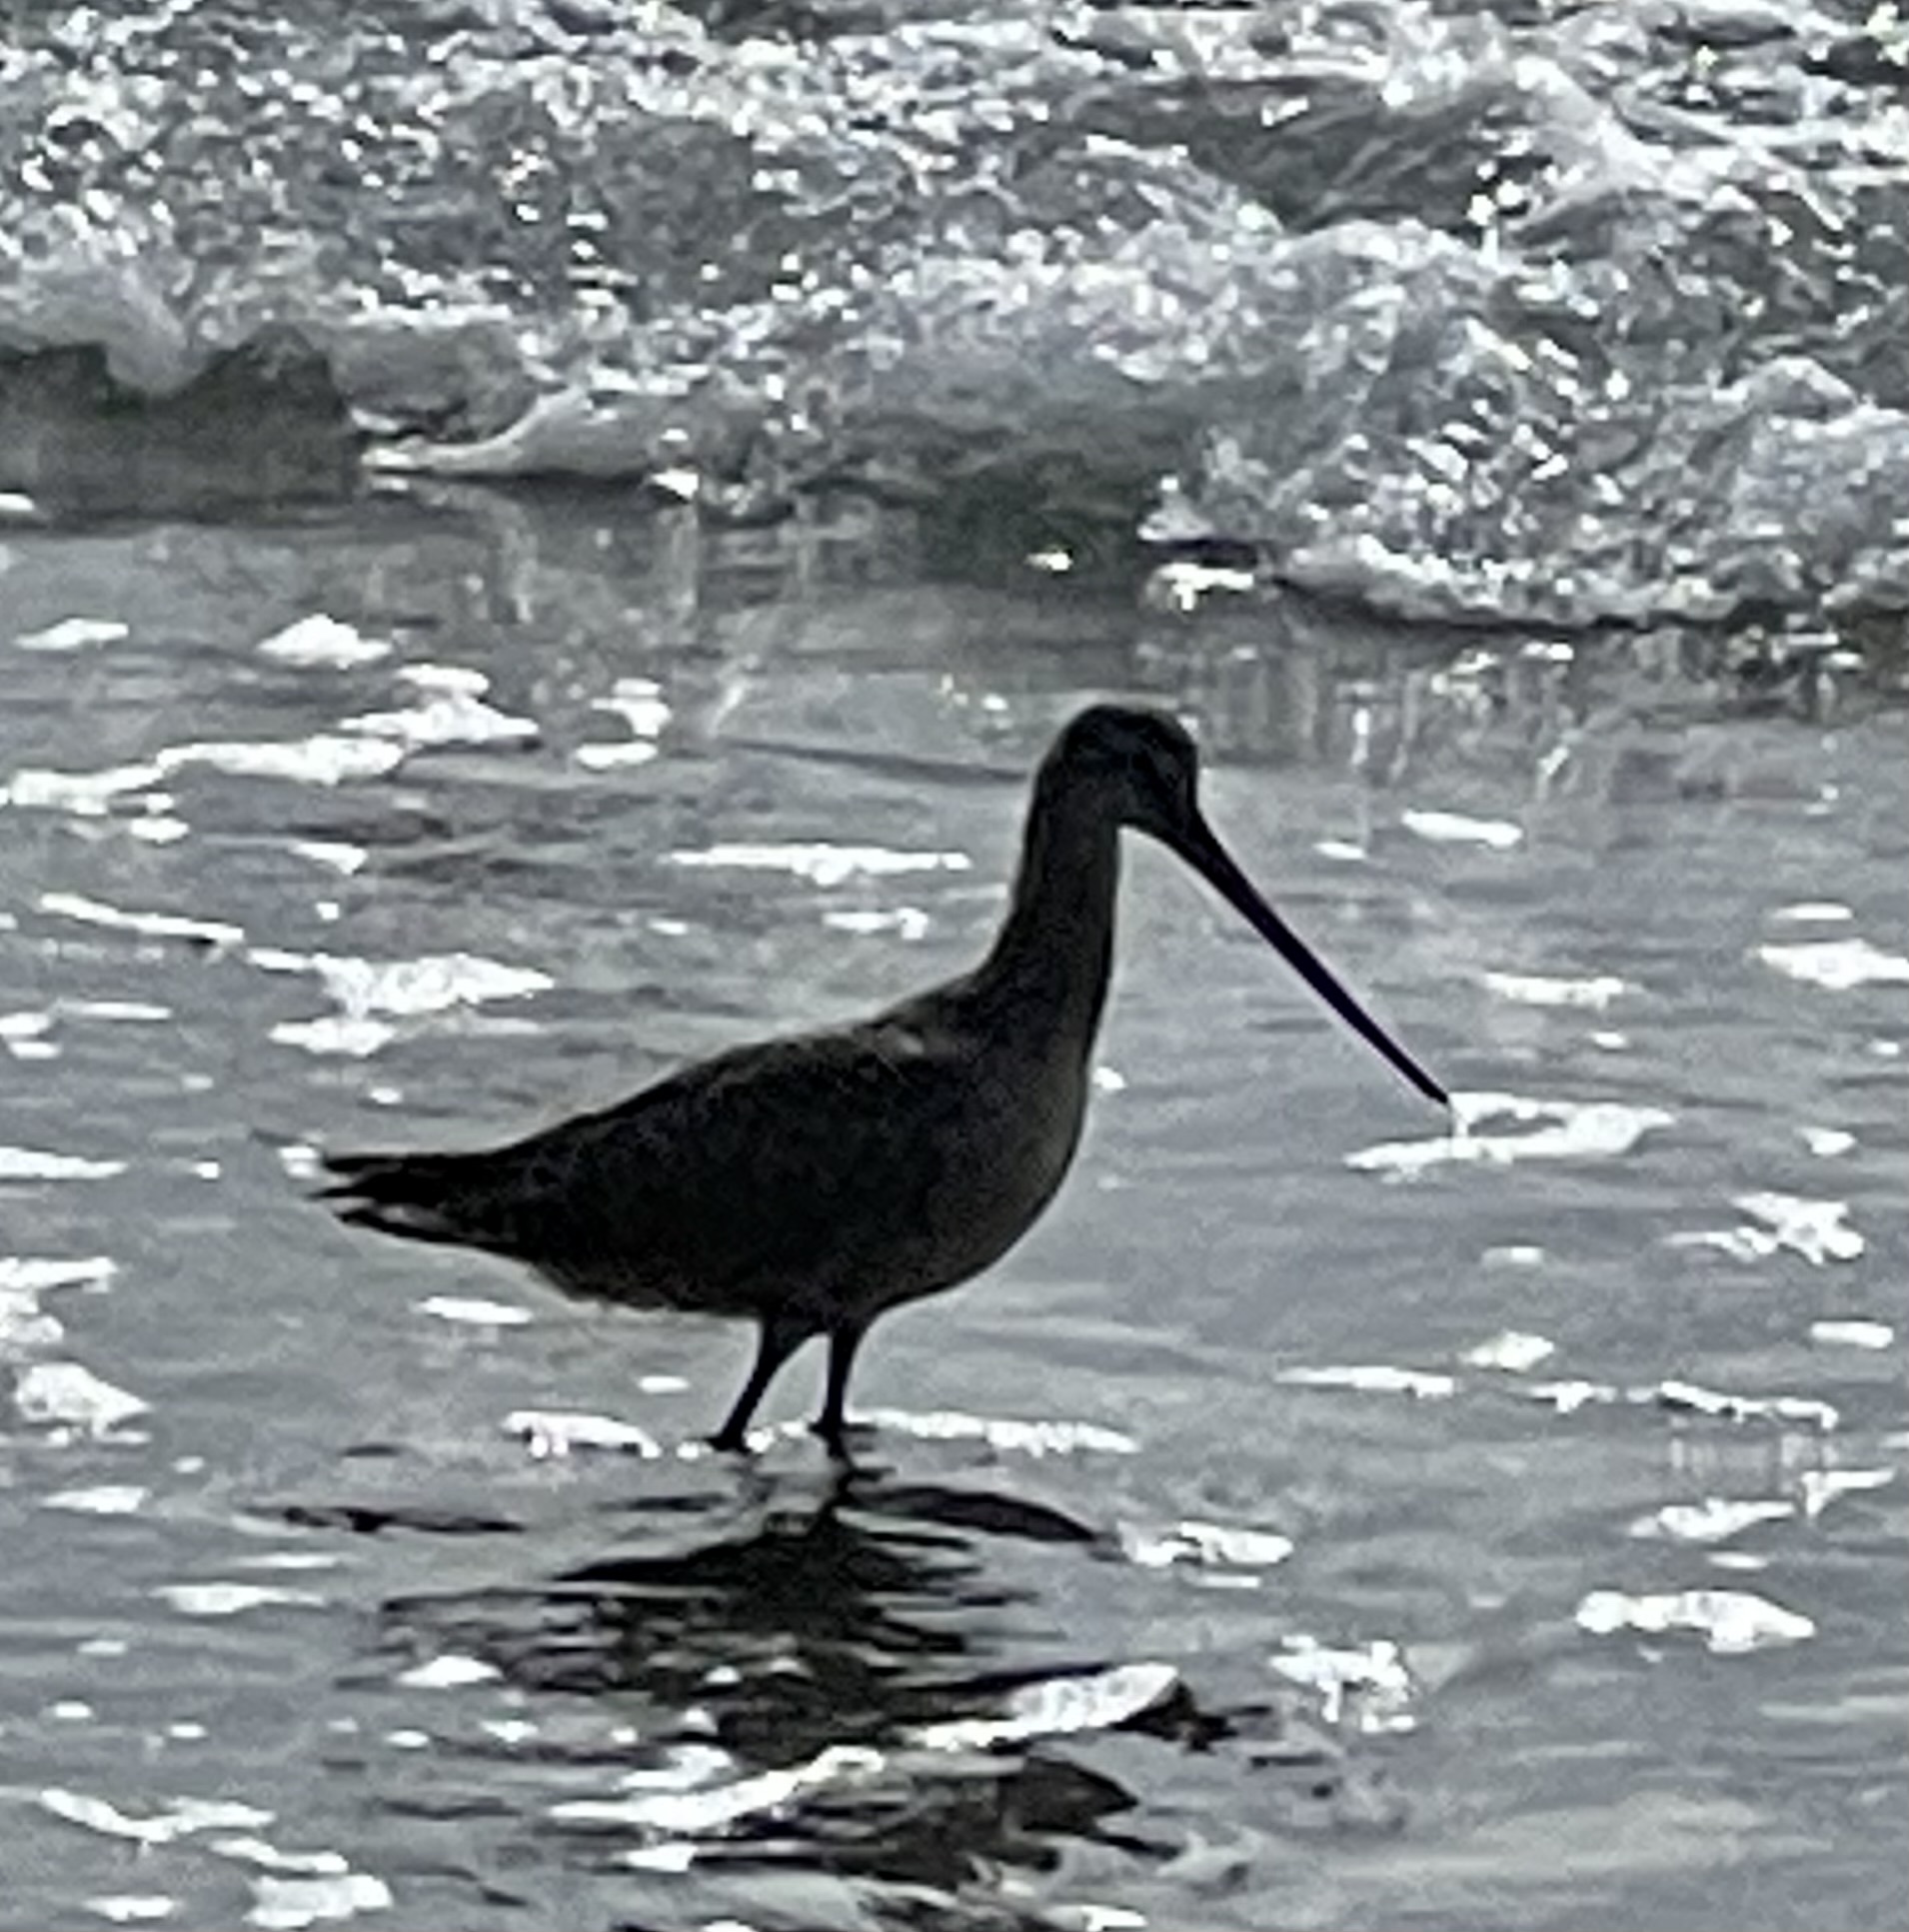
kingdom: Animalia
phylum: Chordata
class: Aves
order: Charadriiformes
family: Scolopacidae
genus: Limosa
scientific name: Limosa fedoa
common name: Marbled godwit
